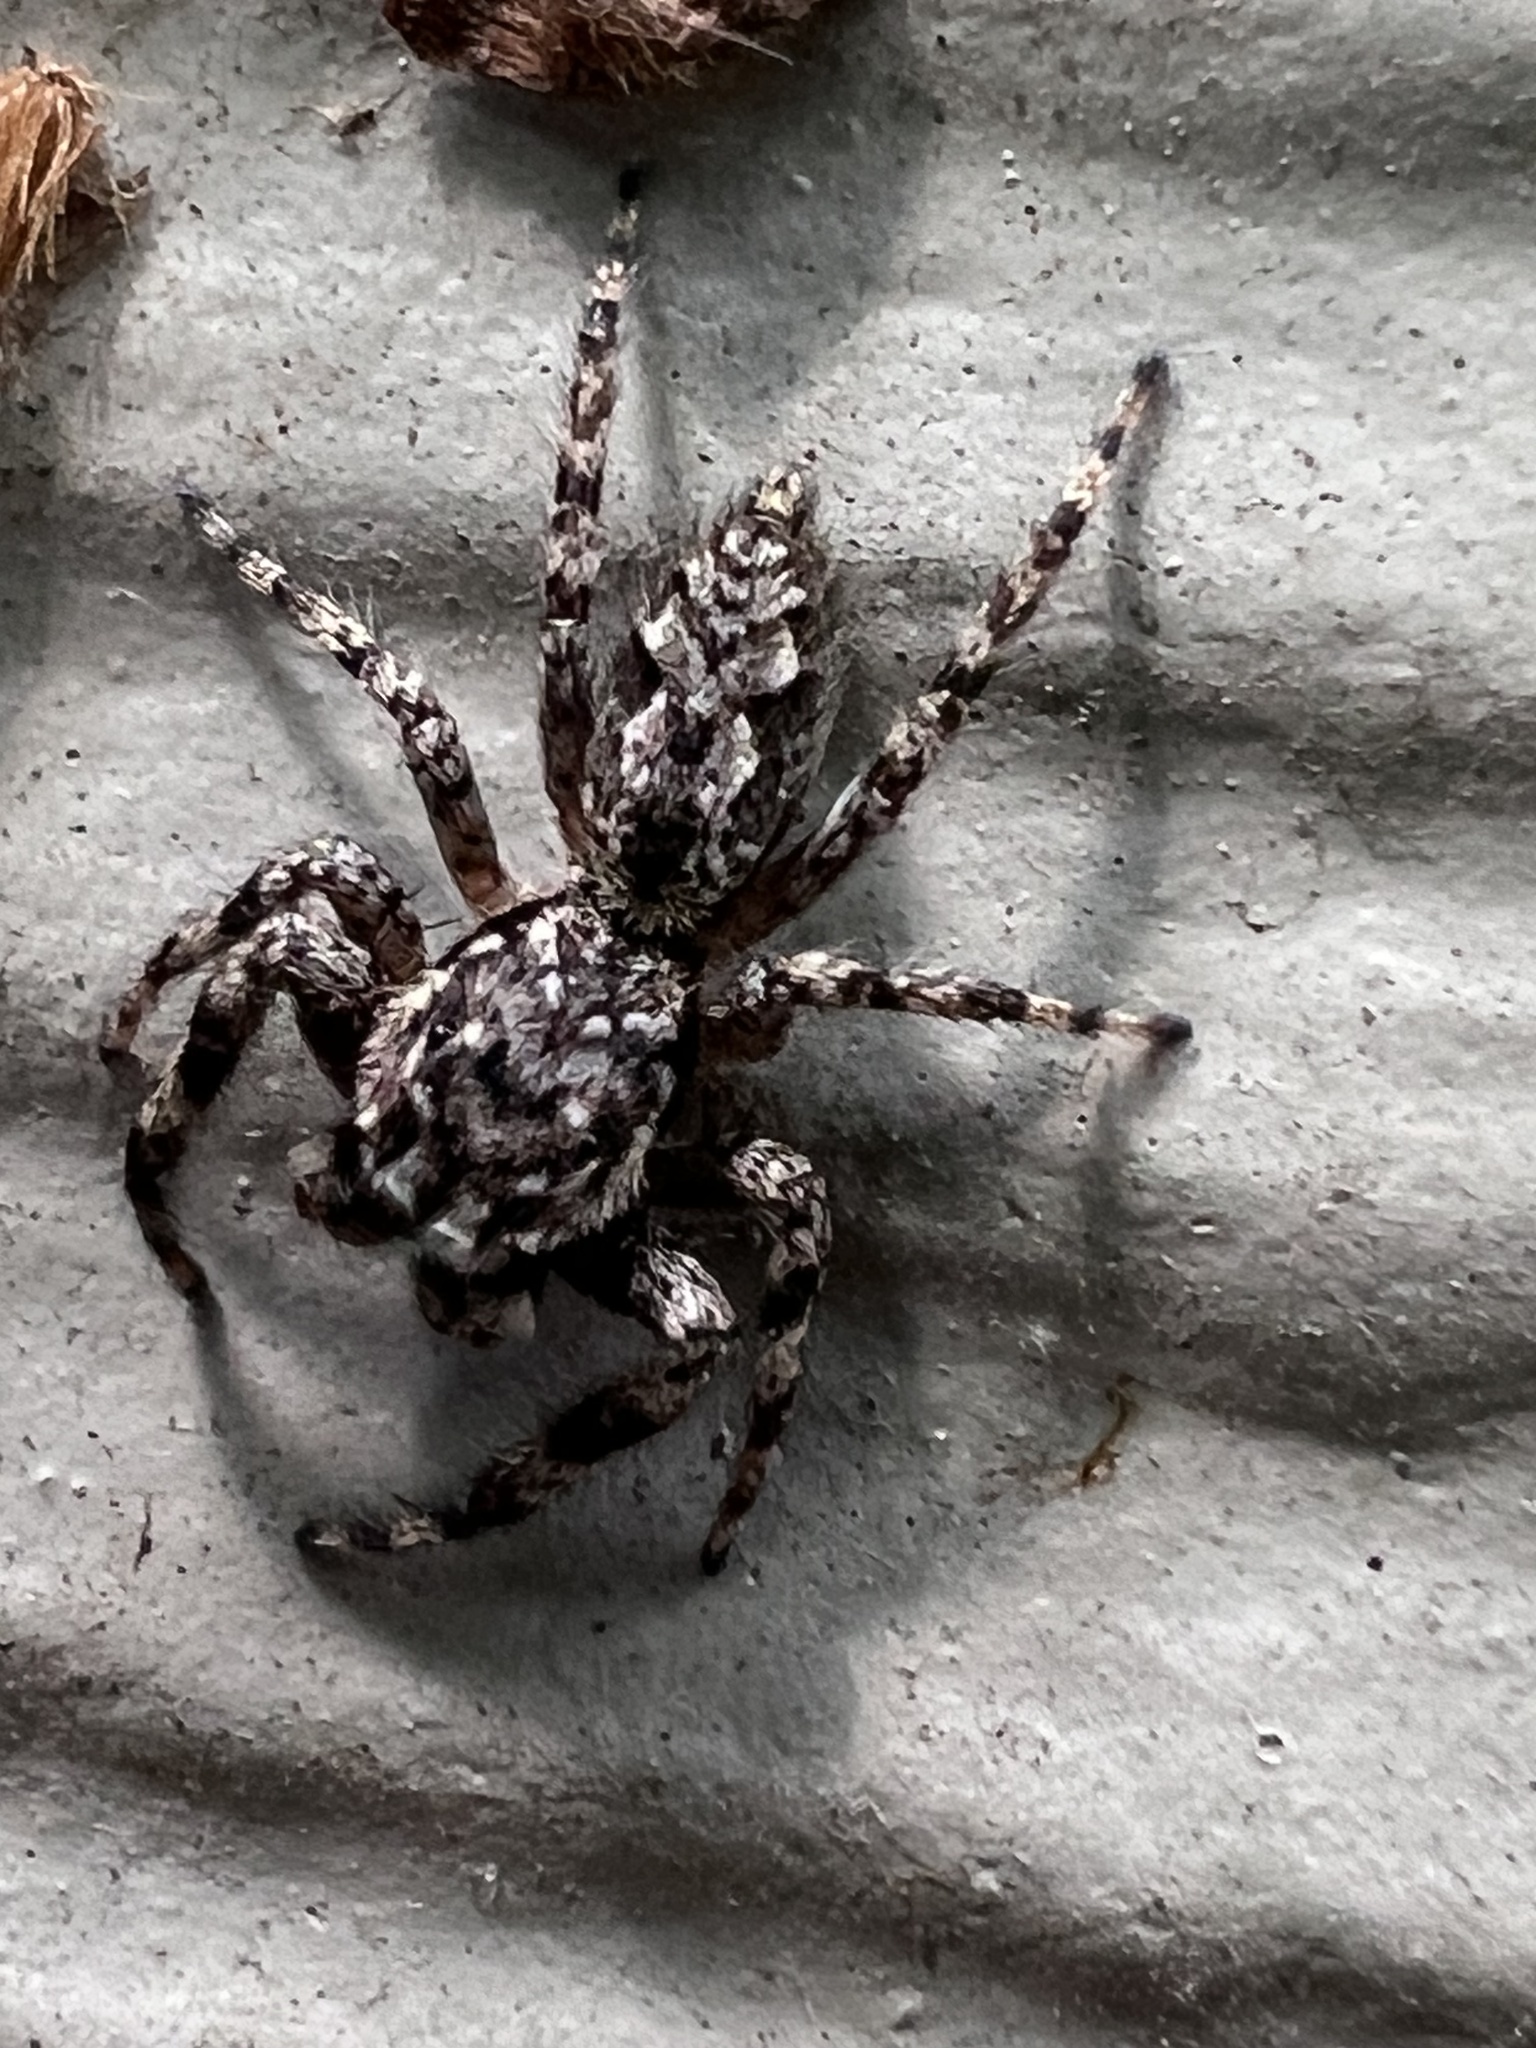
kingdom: Animalia
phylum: Arthropoda
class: Arachnida
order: Araneae
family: Salticidae
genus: Platycryptus
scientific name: Platycryptus undatus
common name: Tan jumping spider
